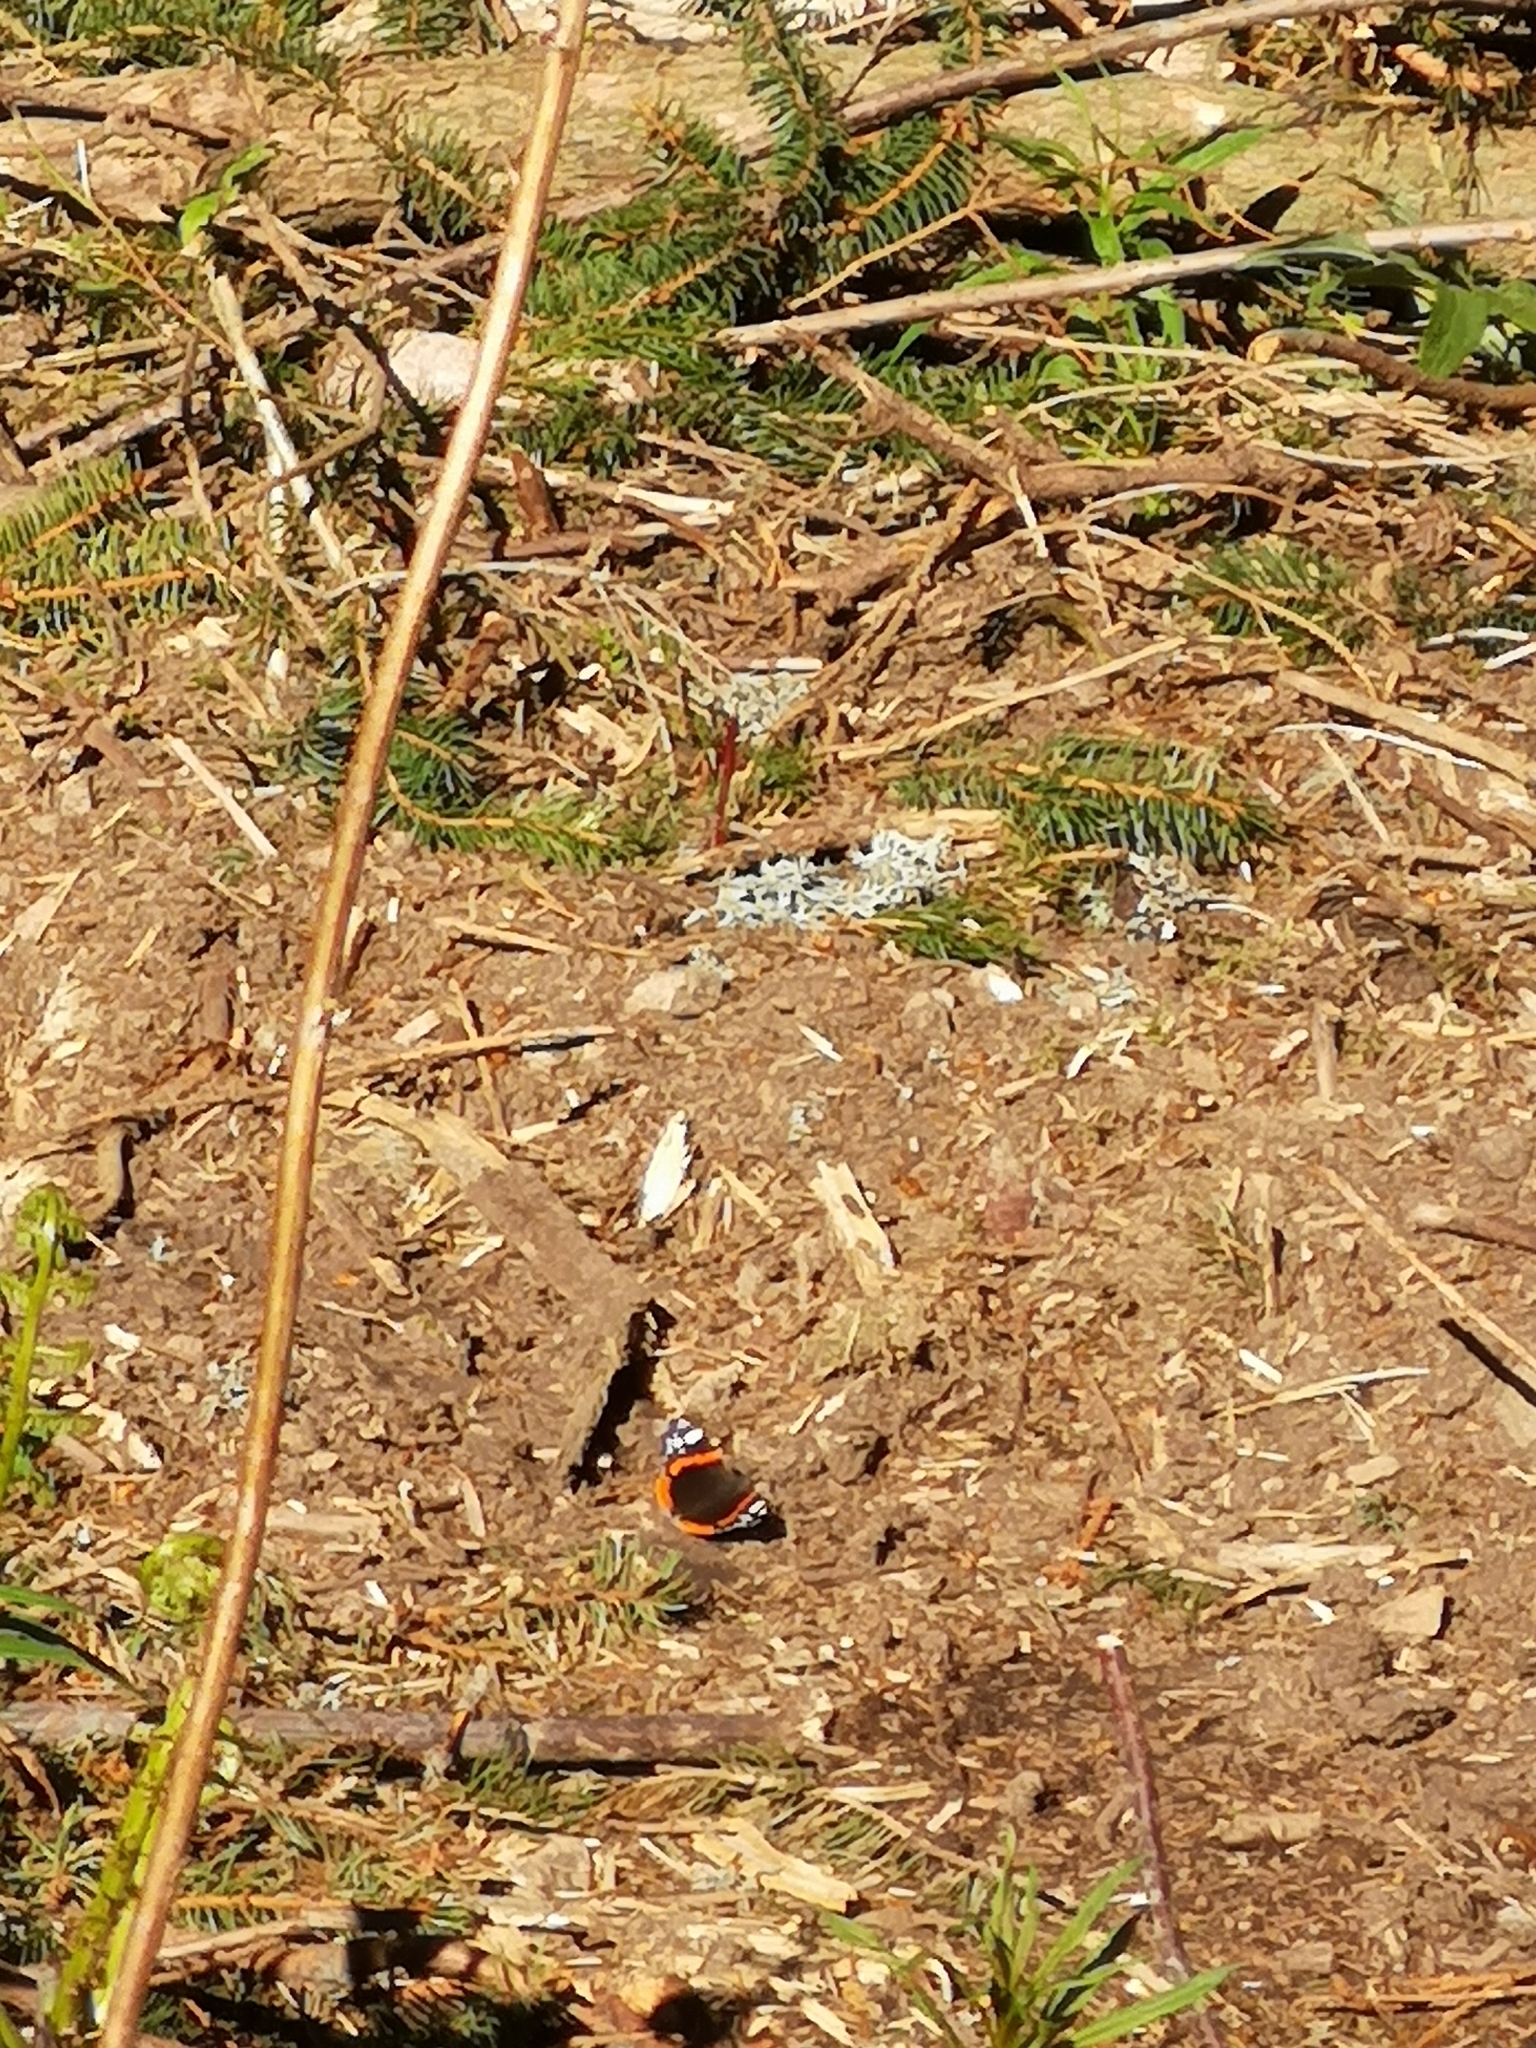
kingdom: Animalia
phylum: Arthropoda
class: Insecta
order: Lepidoptera
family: Nymphalidae
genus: Vanessa
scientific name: Vanessa atalanta
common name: Red admiral
